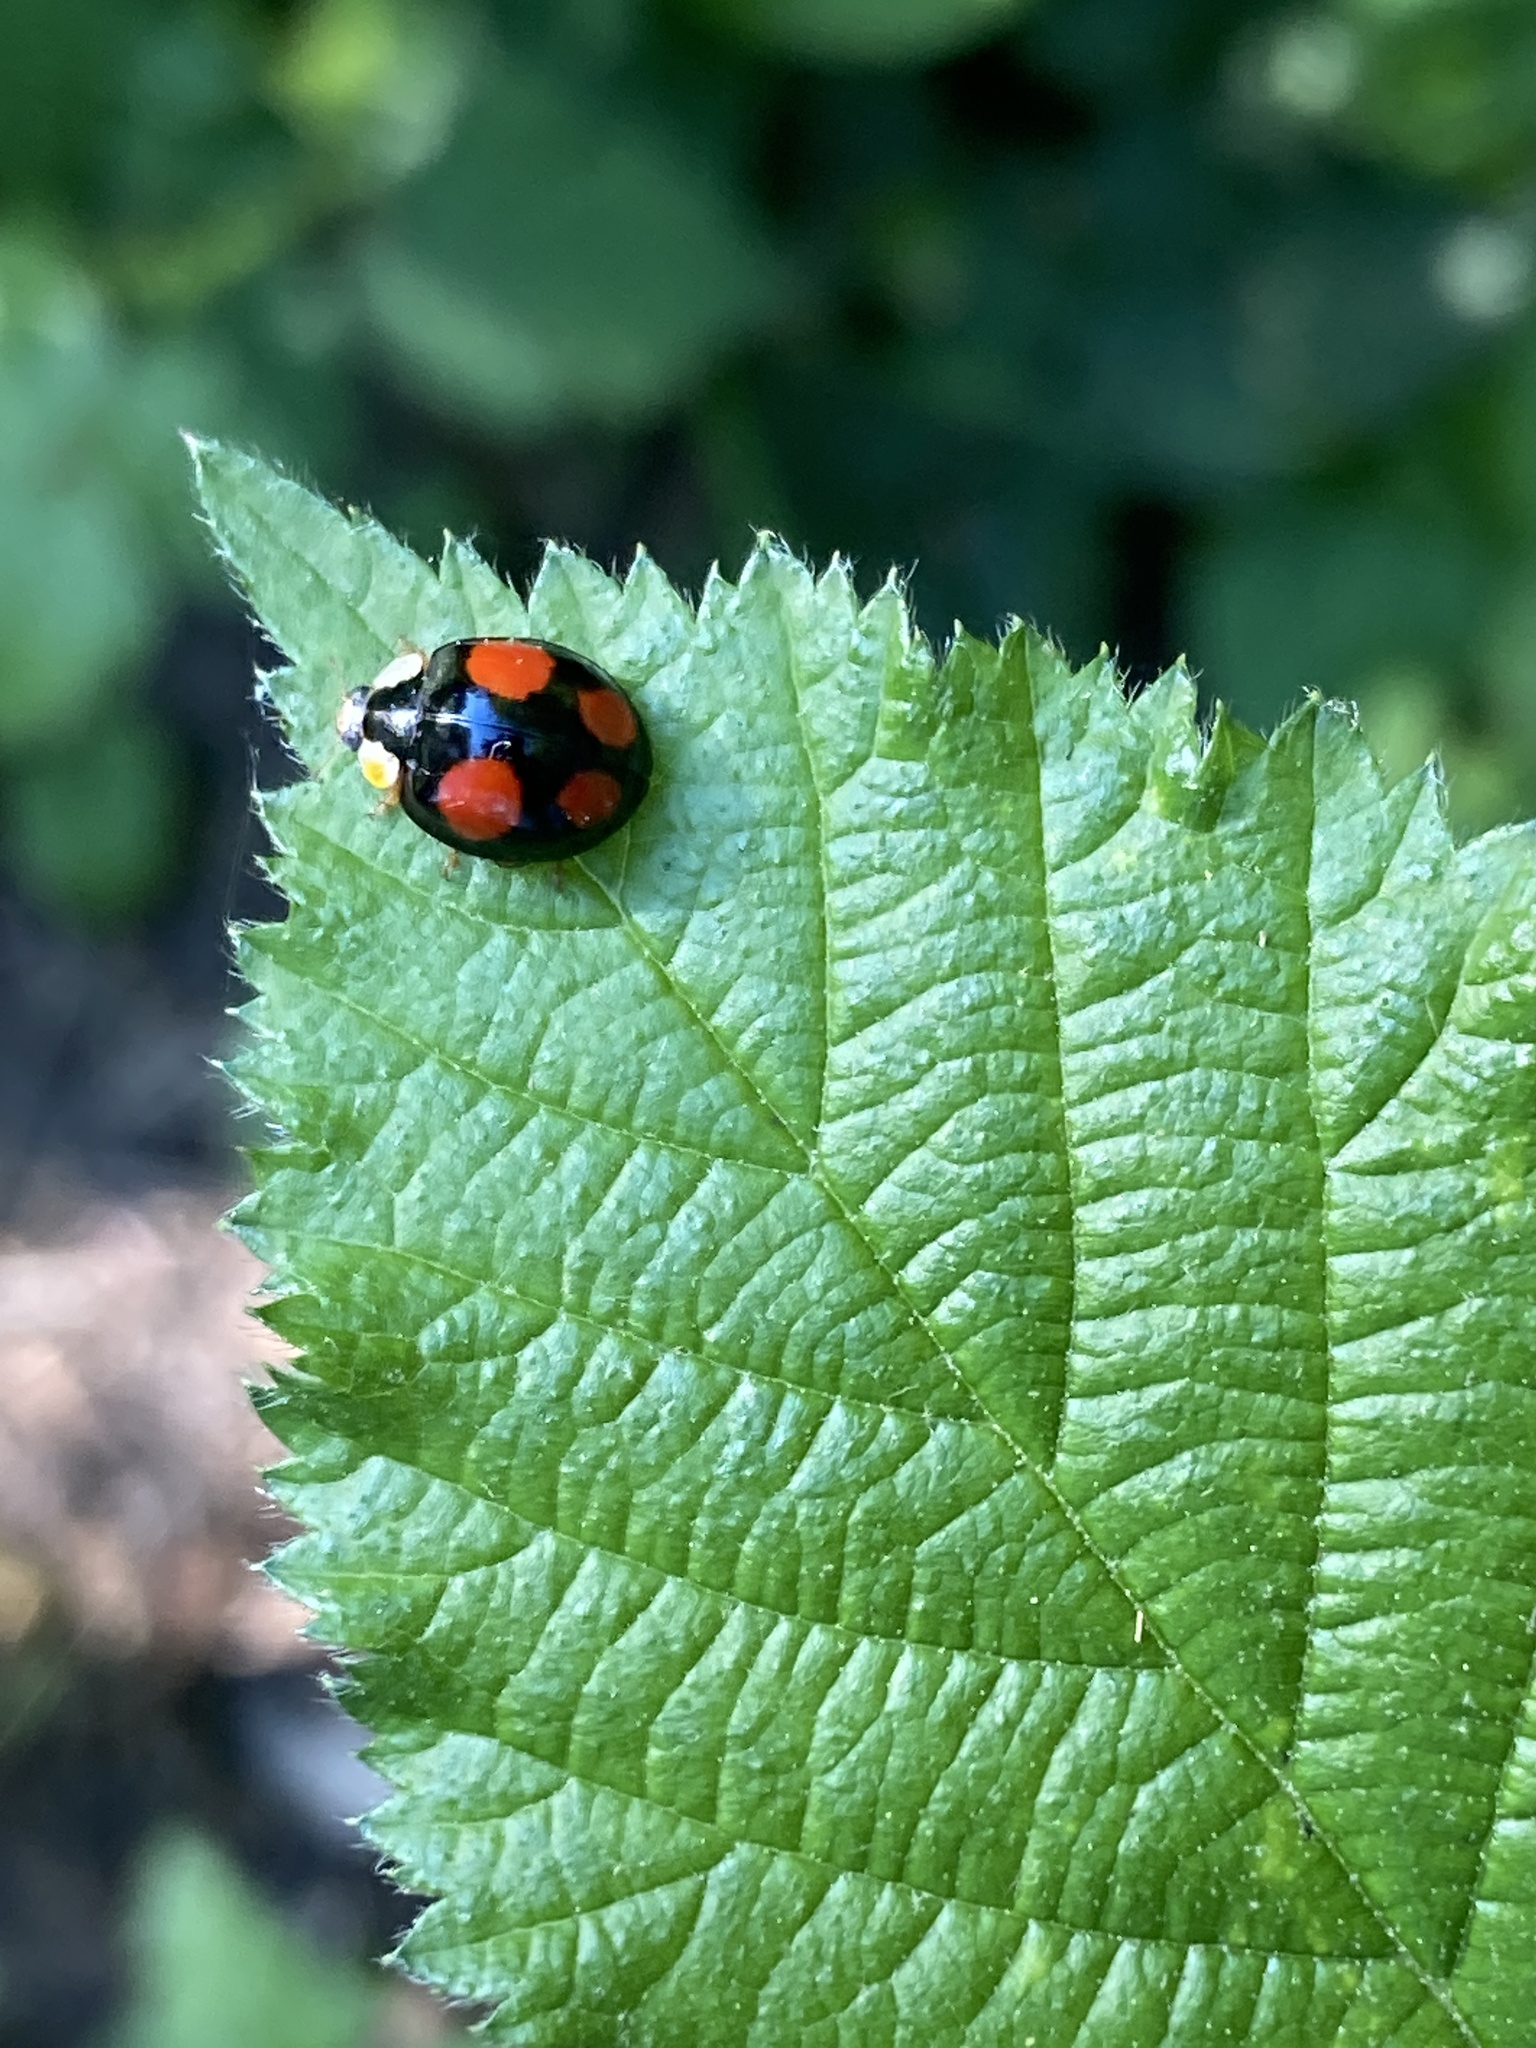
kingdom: Animalia
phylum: Arthropoda
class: Insecta
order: Coleoptera
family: Coccinellidae
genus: Harmonia
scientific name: Harmonia axyridis
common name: Harlequin ladybird
